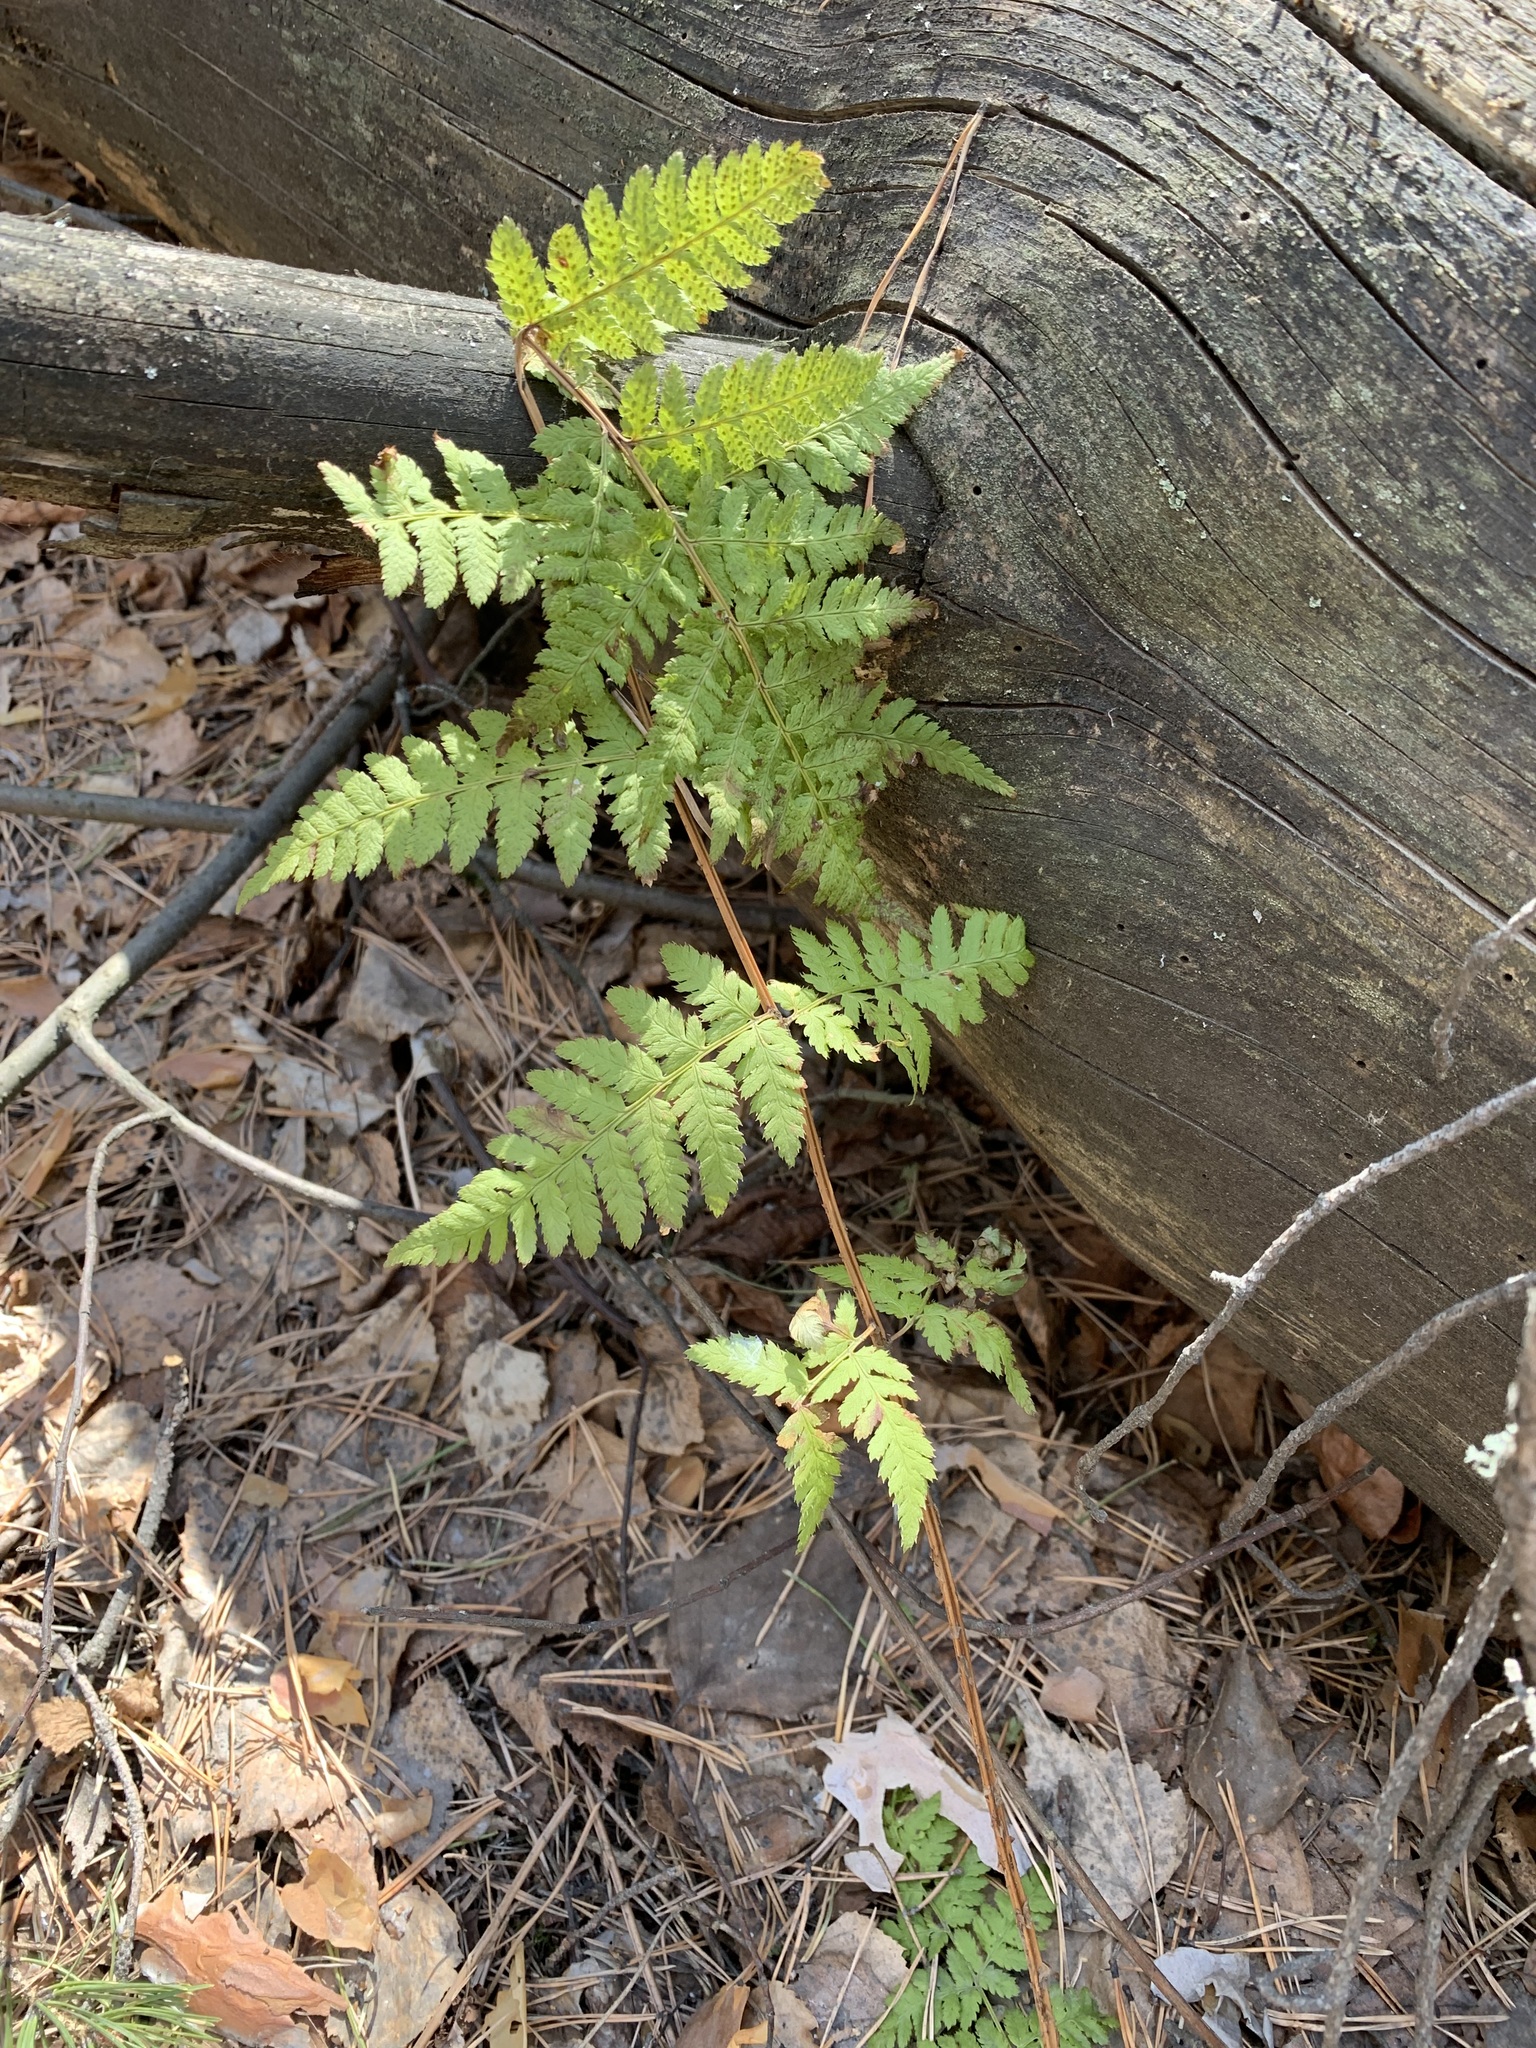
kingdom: Plantae
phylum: Tracheophyta
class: Polypodiopsida
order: Polypodiales
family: Dryopteridaceae
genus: Dryopteris
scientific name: Dryopteris carthusiana
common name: Narrow buckler-fern
